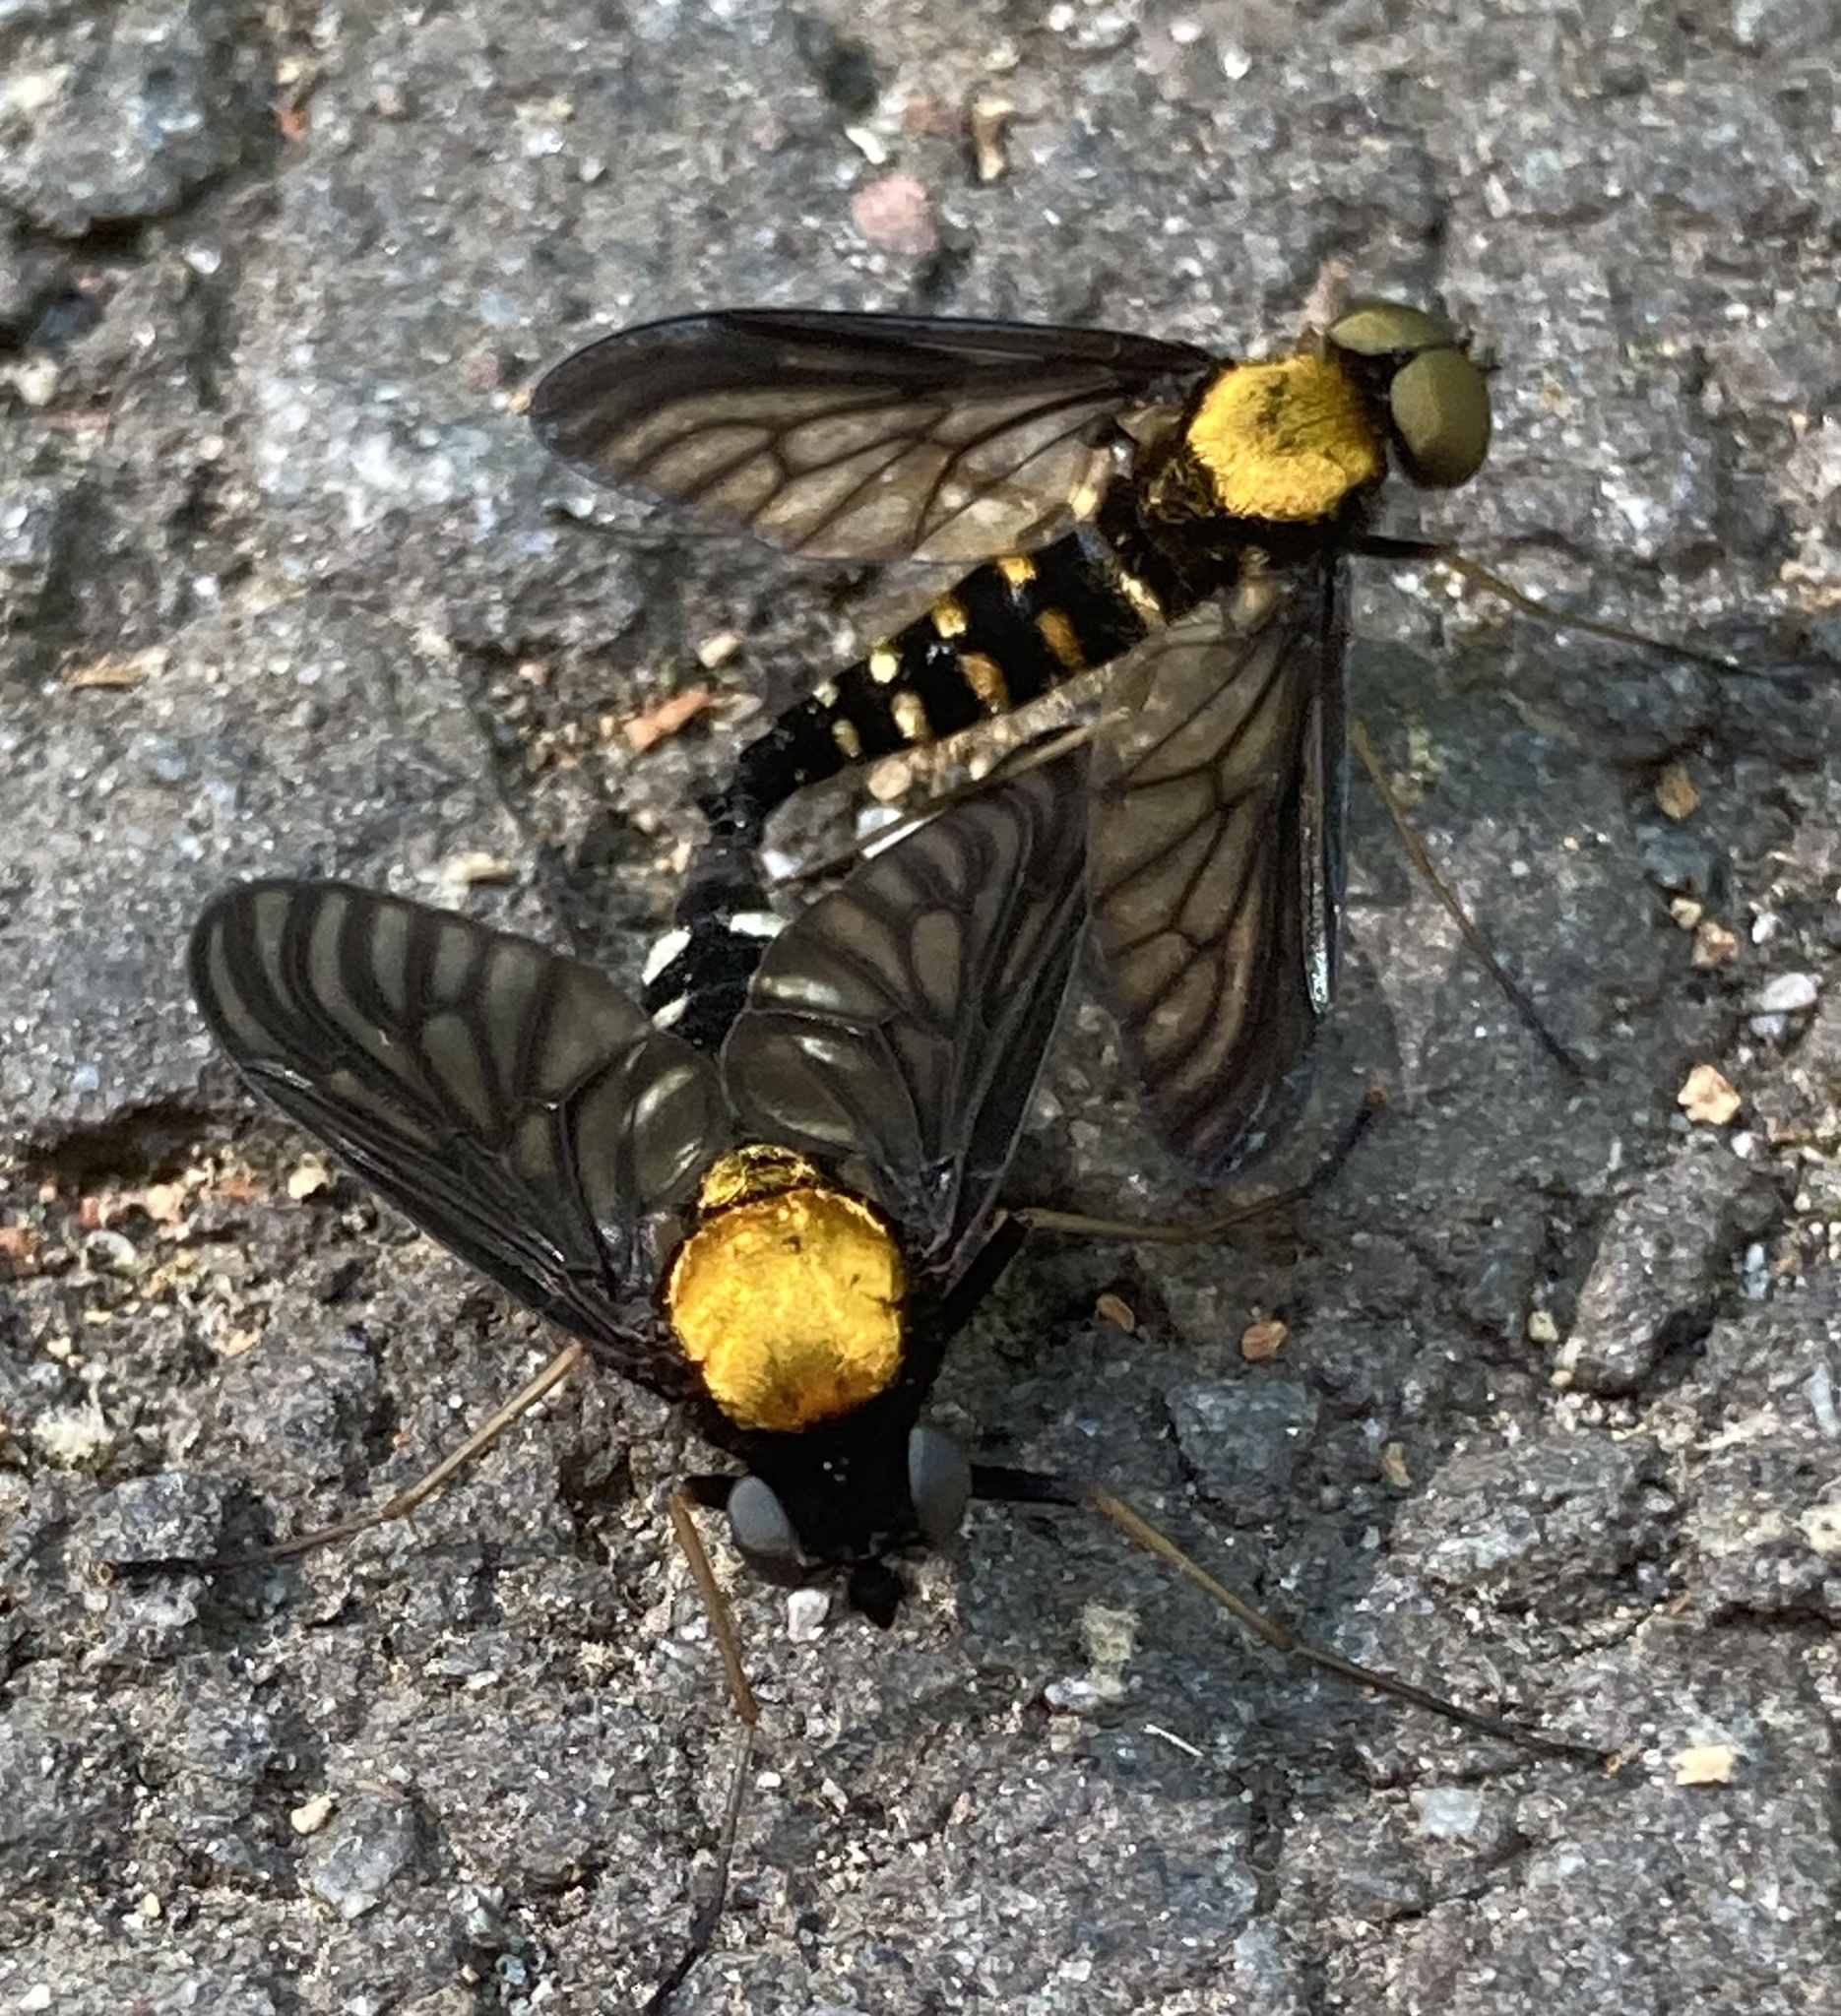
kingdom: Animalia
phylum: Arthropoda
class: Insecta
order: Diptera
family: Rhagionidae
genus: Chrysopilus
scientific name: Chrysopilus thoracicus
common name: Golden-backed snipe fly
